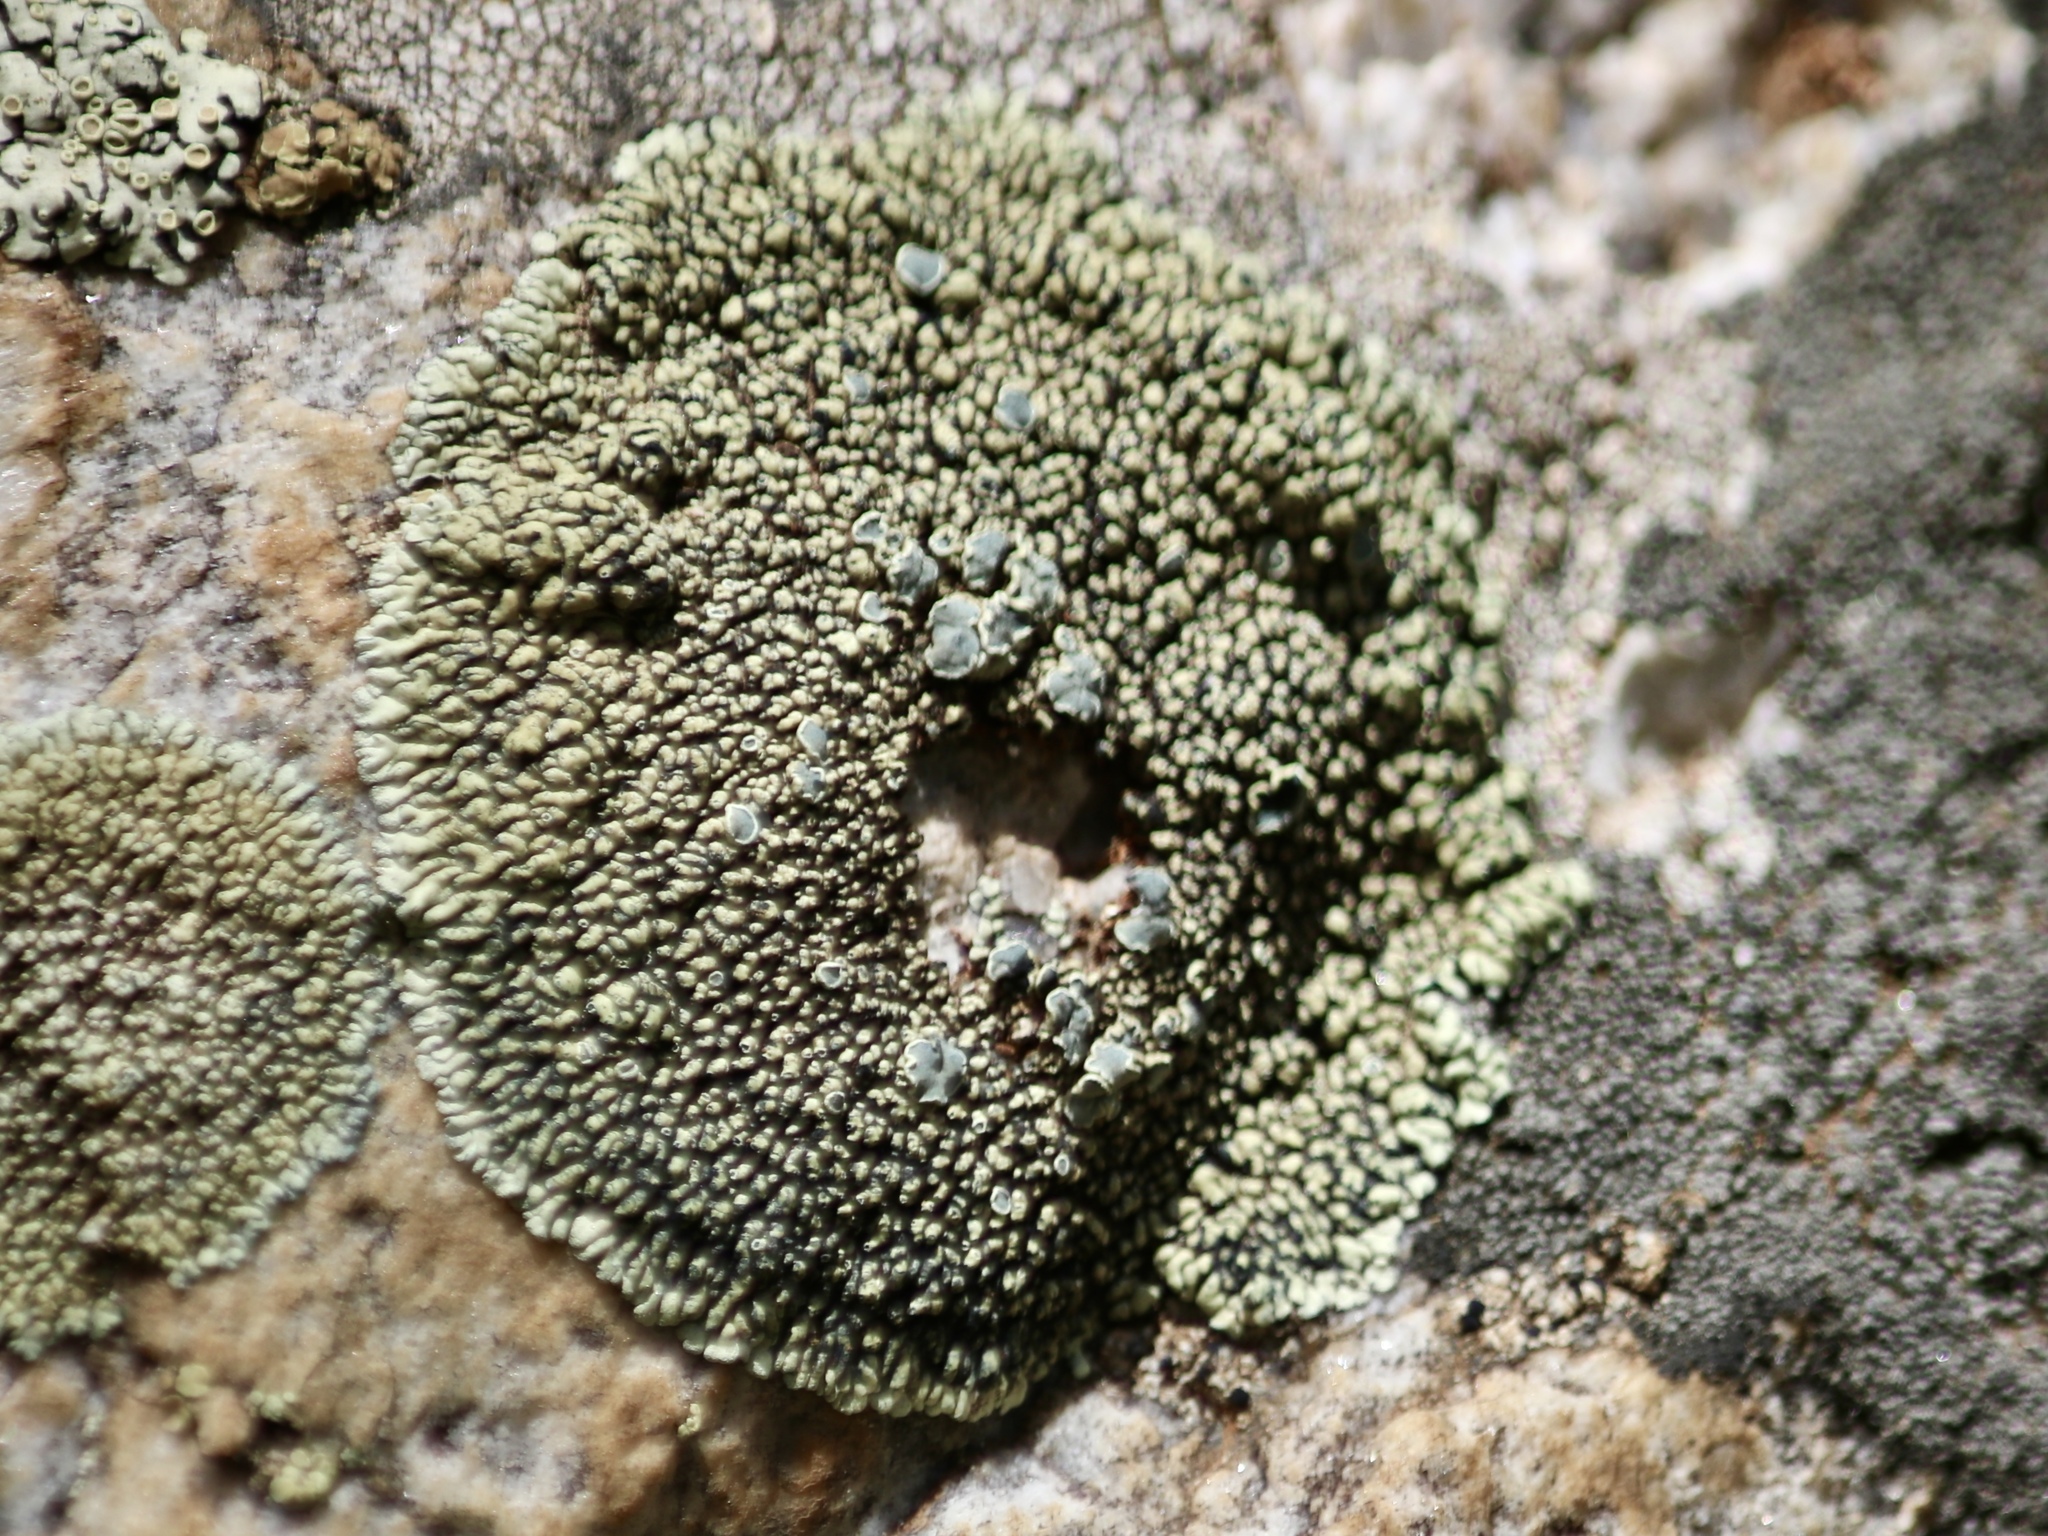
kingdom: Fungi
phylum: Ascomycota
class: Lecanoromycetes
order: Lecanorales
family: Lecanoraceae
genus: Rhizoplaca
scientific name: Rhizoplaca novomexicana
